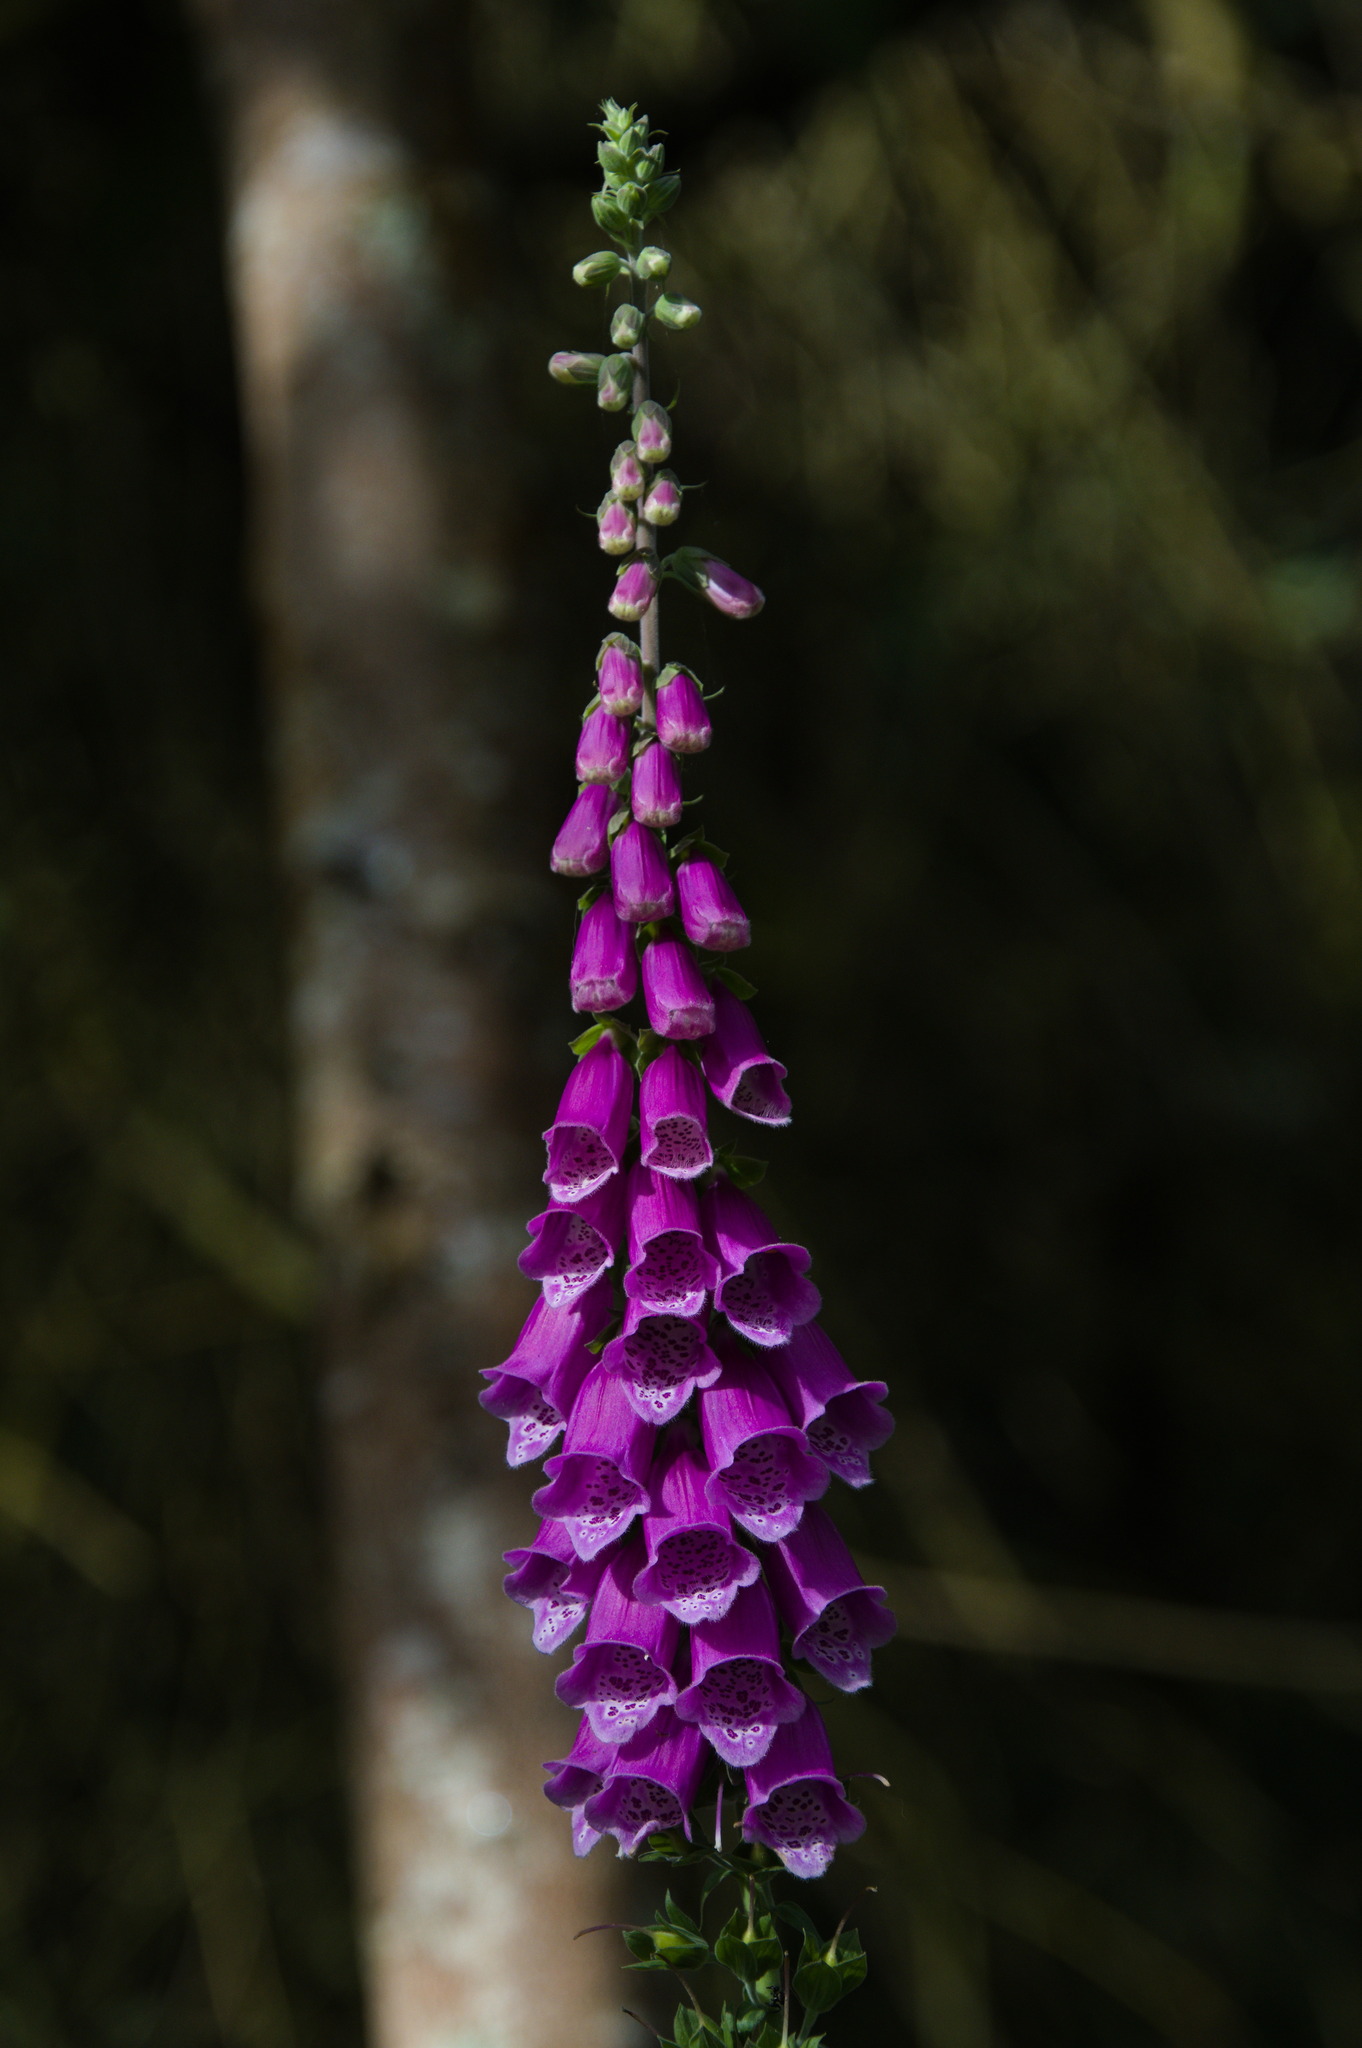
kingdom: Plantae
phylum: Tracheophyta
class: Magnoliopsida
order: Lamiales
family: Plantaginaceae
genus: Digitalis
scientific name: Digitalis purpurea
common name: Foxglove
